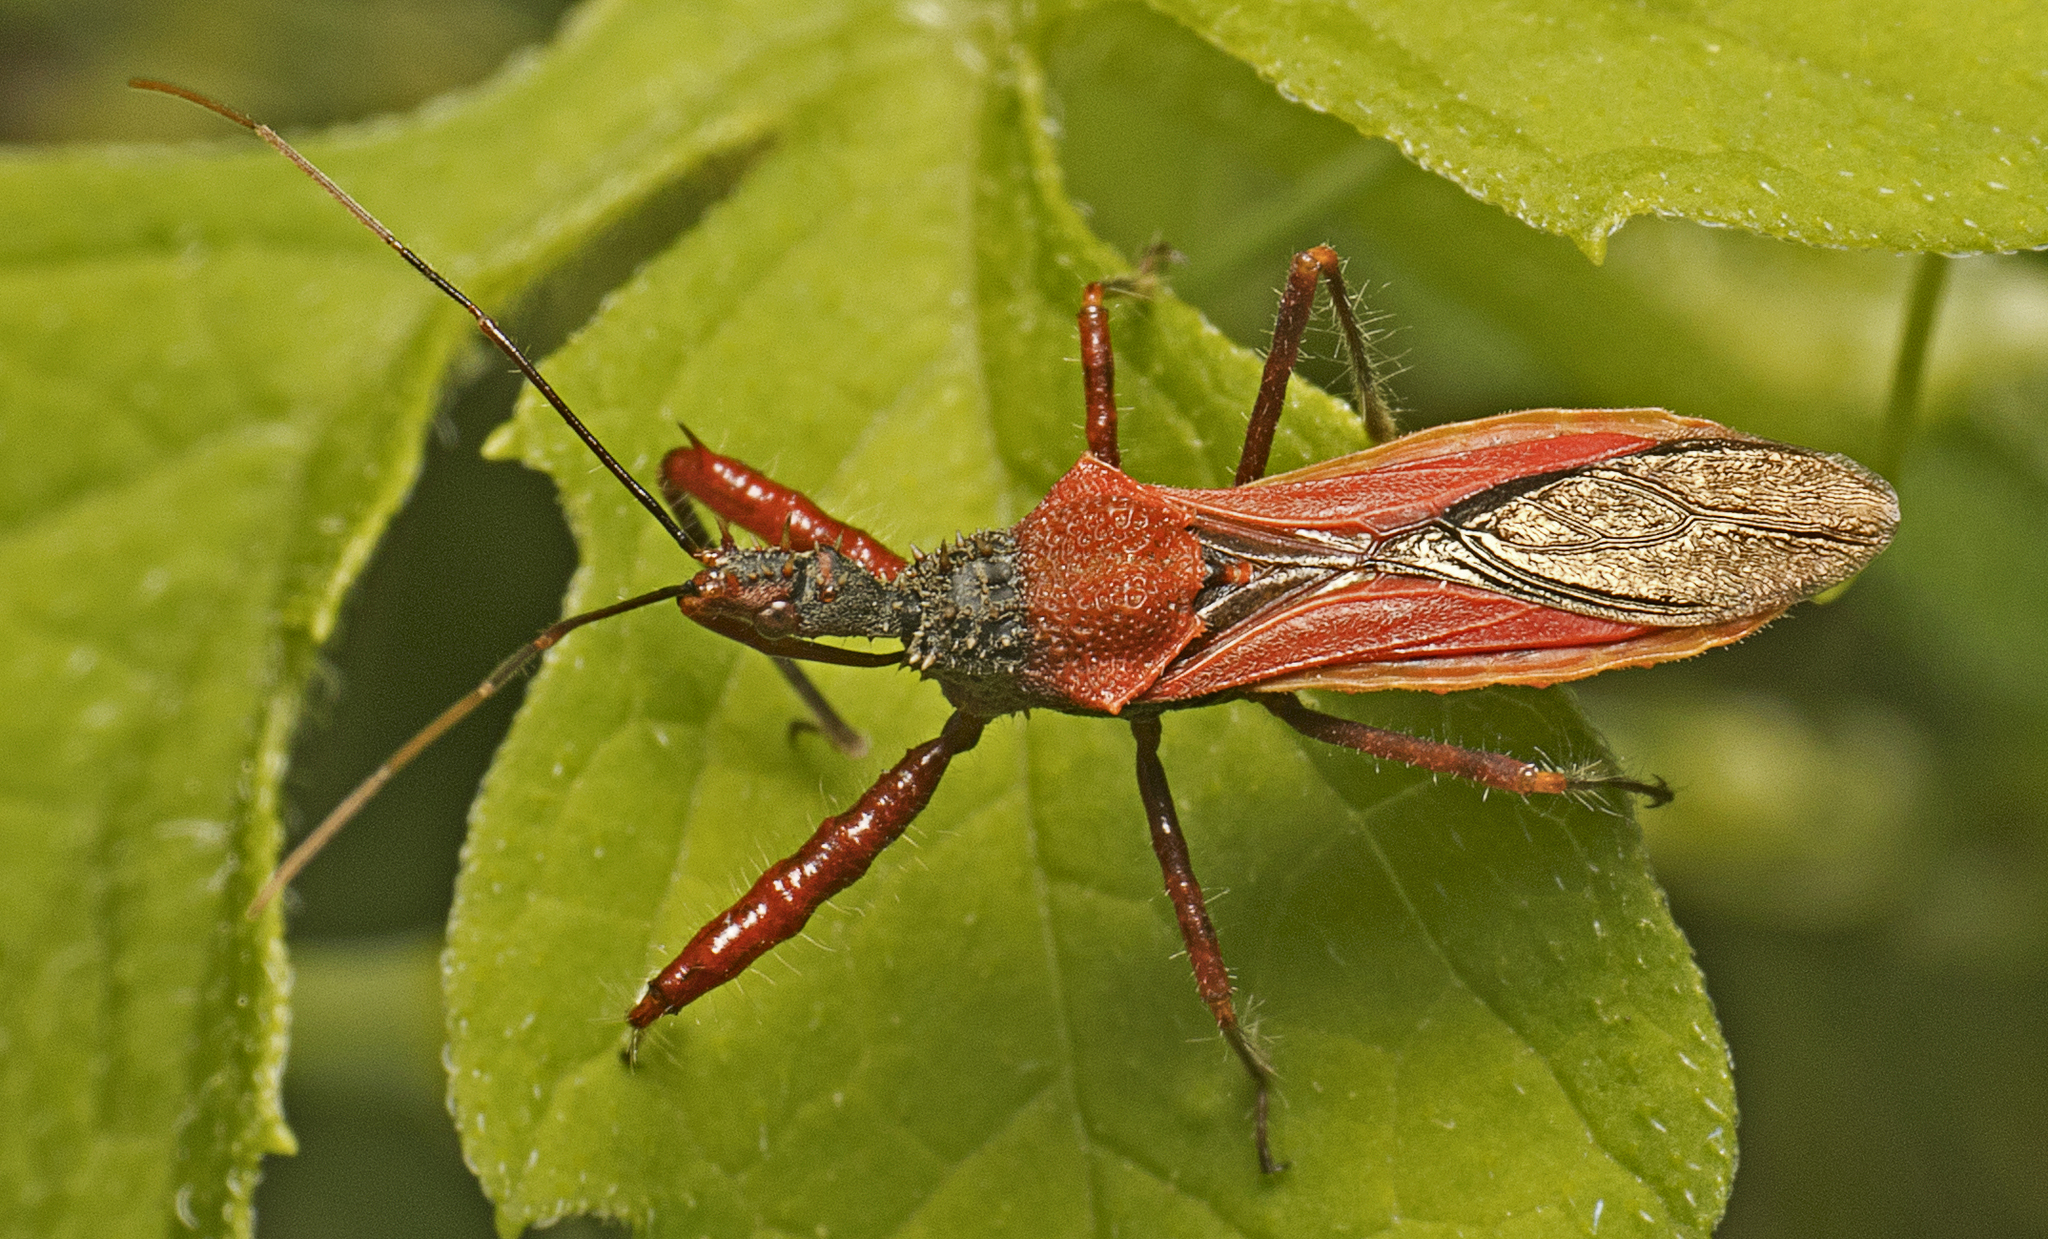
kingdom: Animalia
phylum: Arthropoda
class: Insecta
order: Hemiptera
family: Reduviidae
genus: Scipinia
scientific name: Scipinia arenacea
